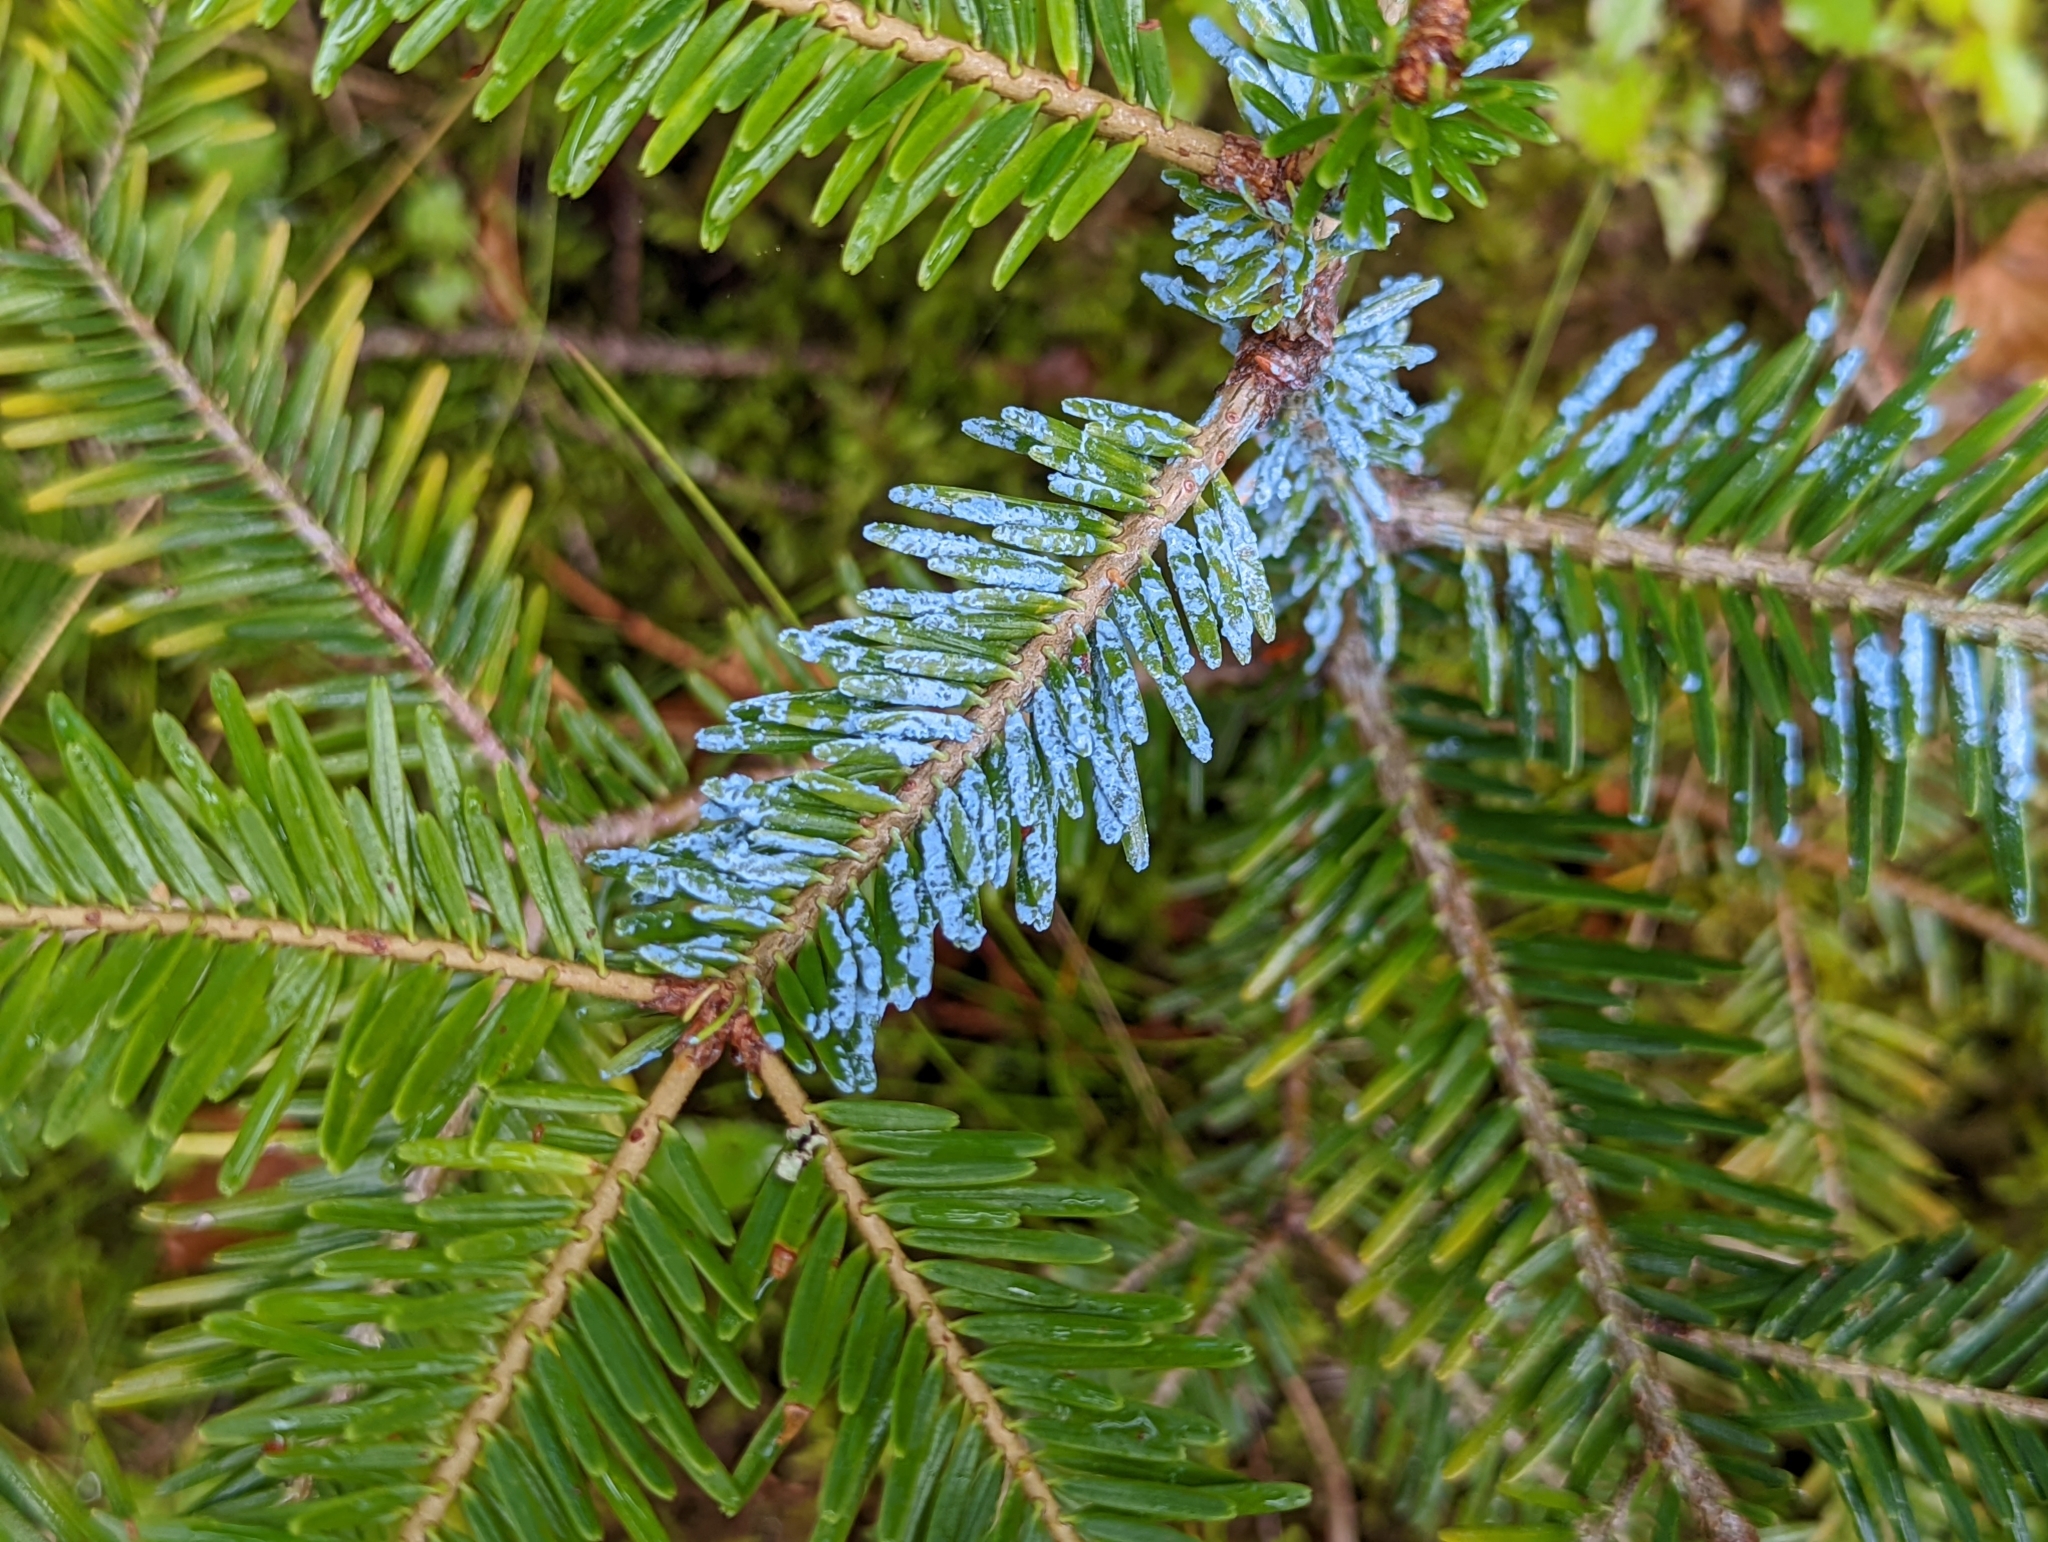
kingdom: Plantae
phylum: Tracheophyta
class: Pinopsida
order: Pinales
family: Pinaceae
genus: Abies
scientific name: Abies alba
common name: Silver fir
